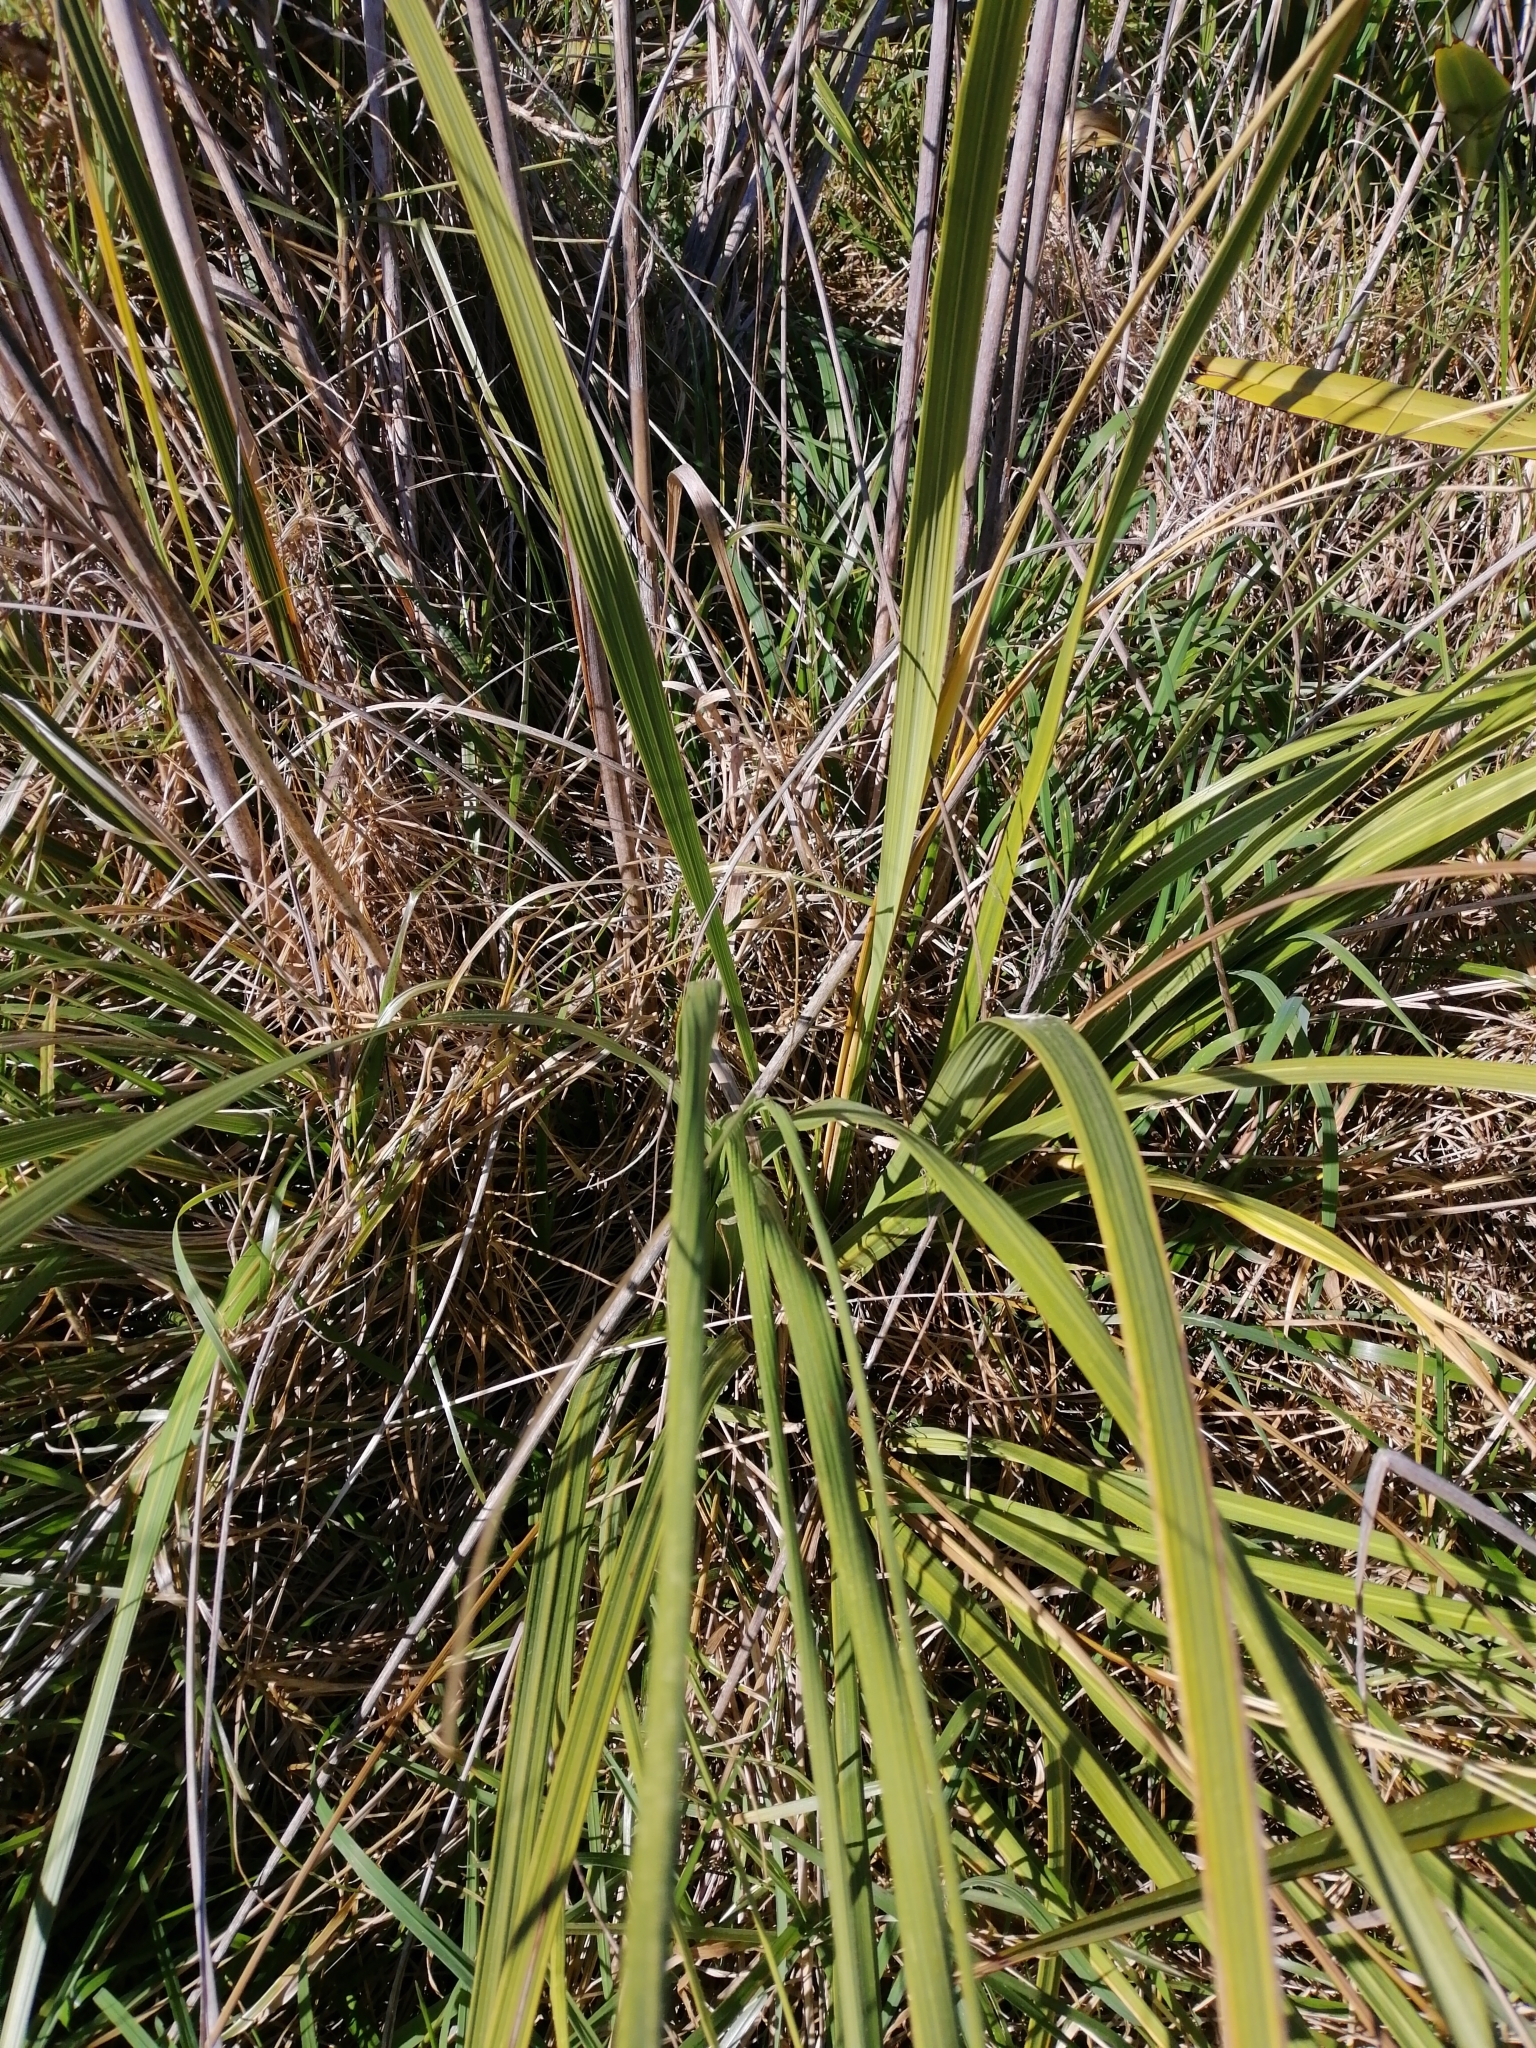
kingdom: Plantae
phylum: Tracheophyta
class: Liliopsida
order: Poales
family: Poaceae
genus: Austroderia
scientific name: Austroderia toetoe
